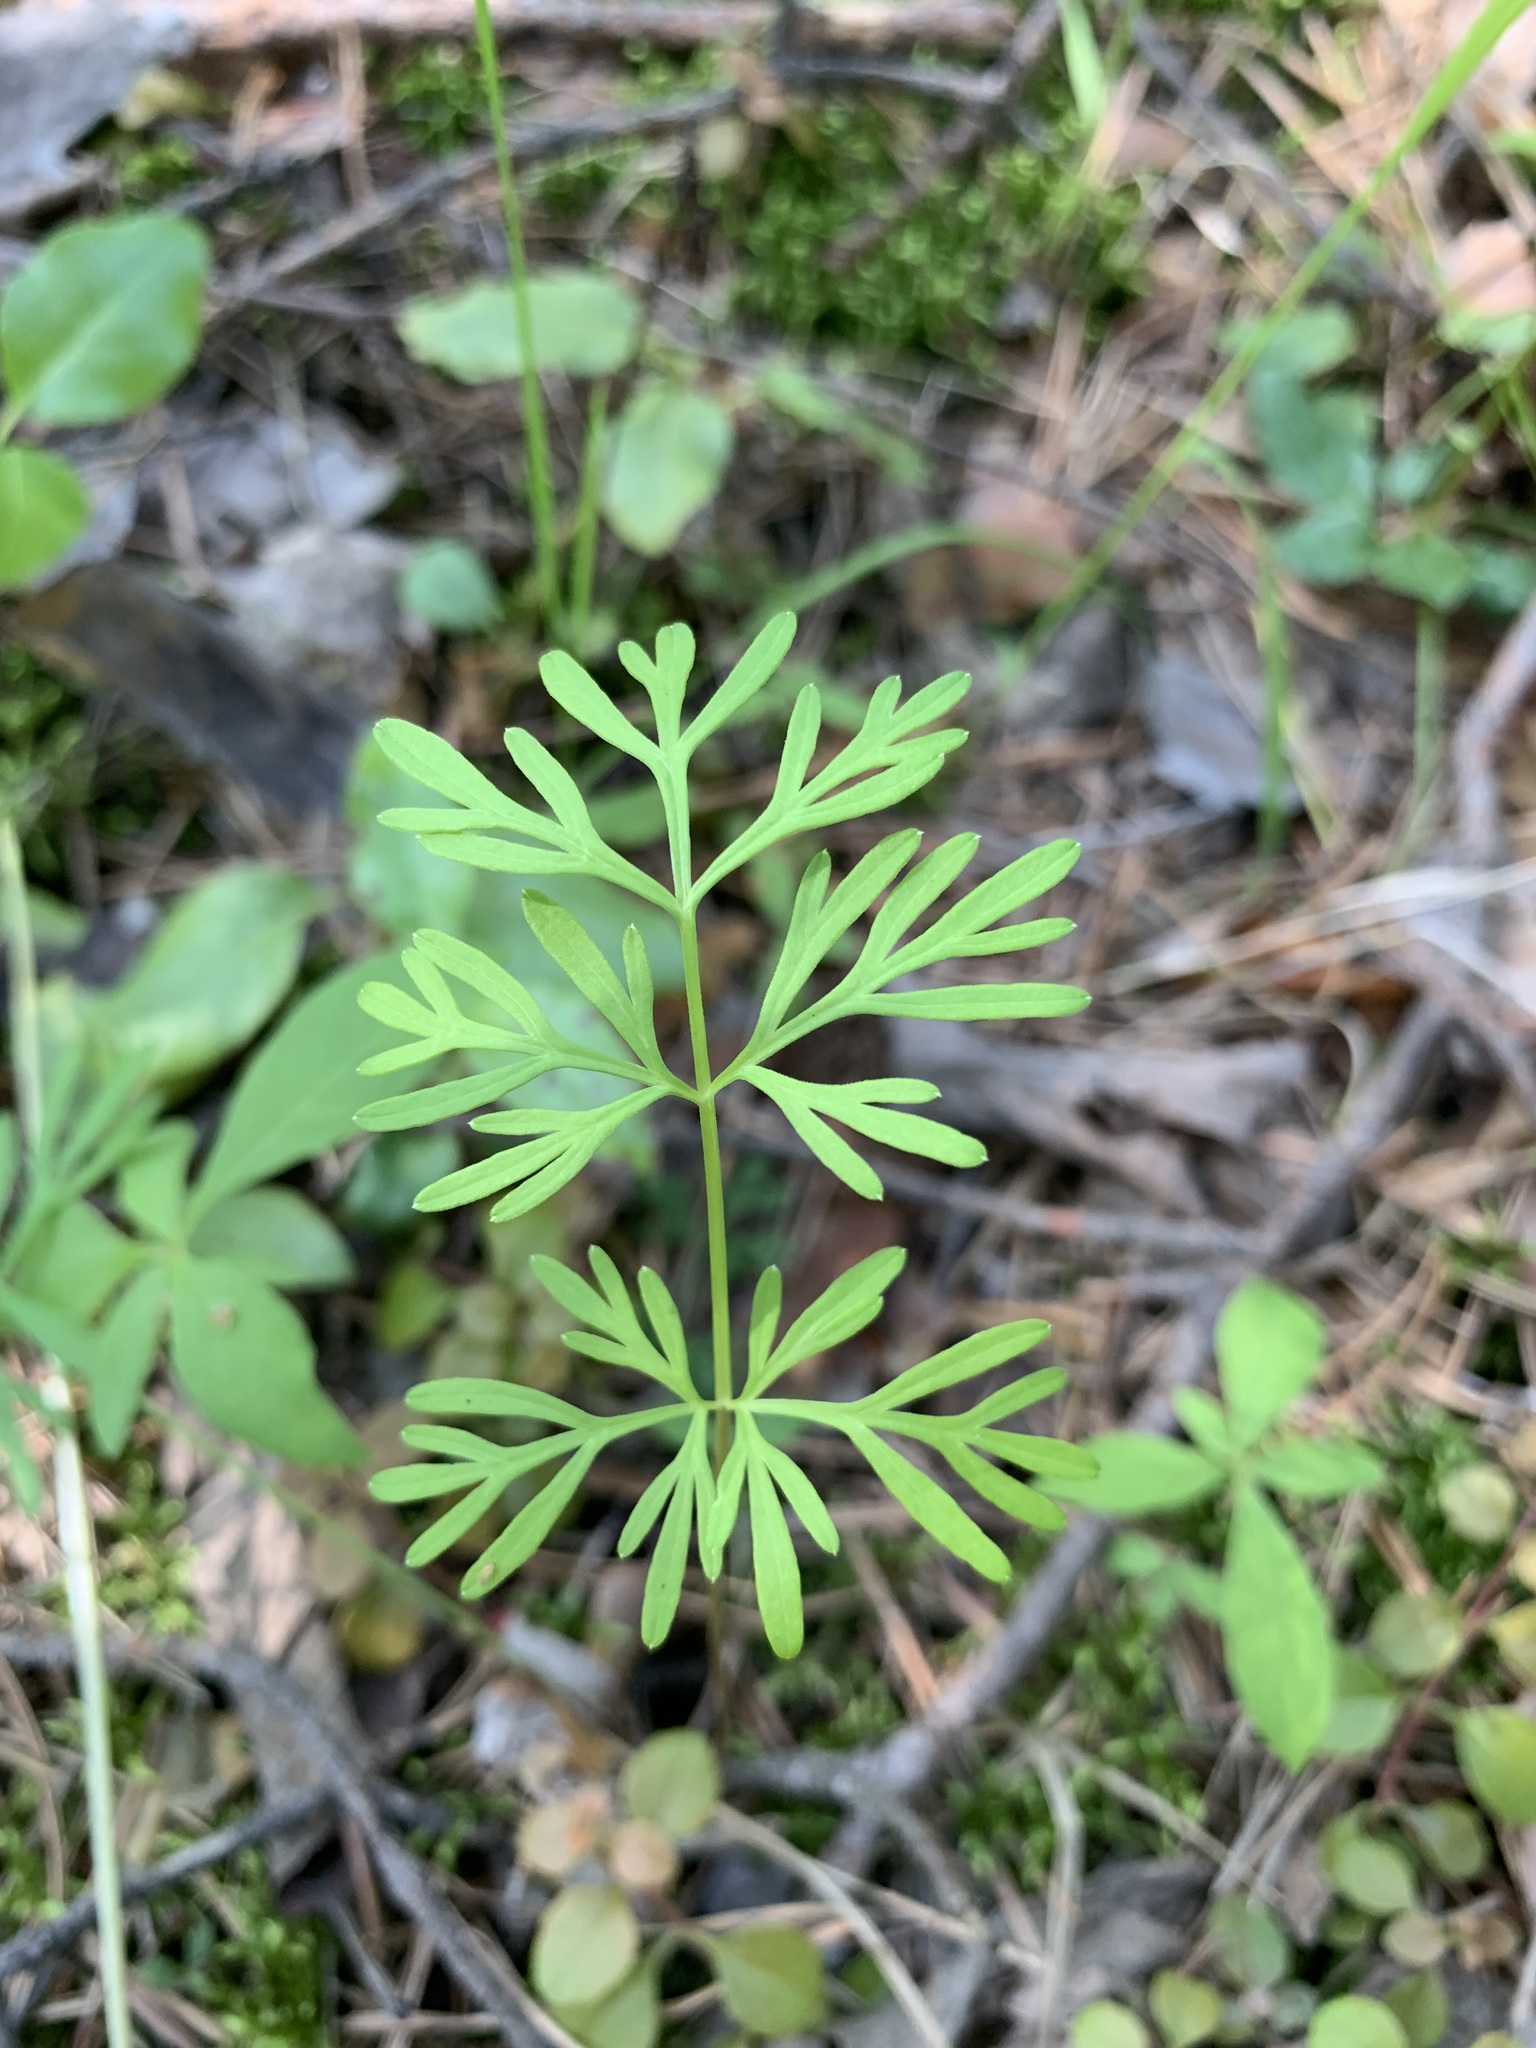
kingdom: Plantae
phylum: Tracheophyta
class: Magnoliopsida
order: Apiales
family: Apiaceae
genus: Kadenia
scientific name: Kadenia dubia
